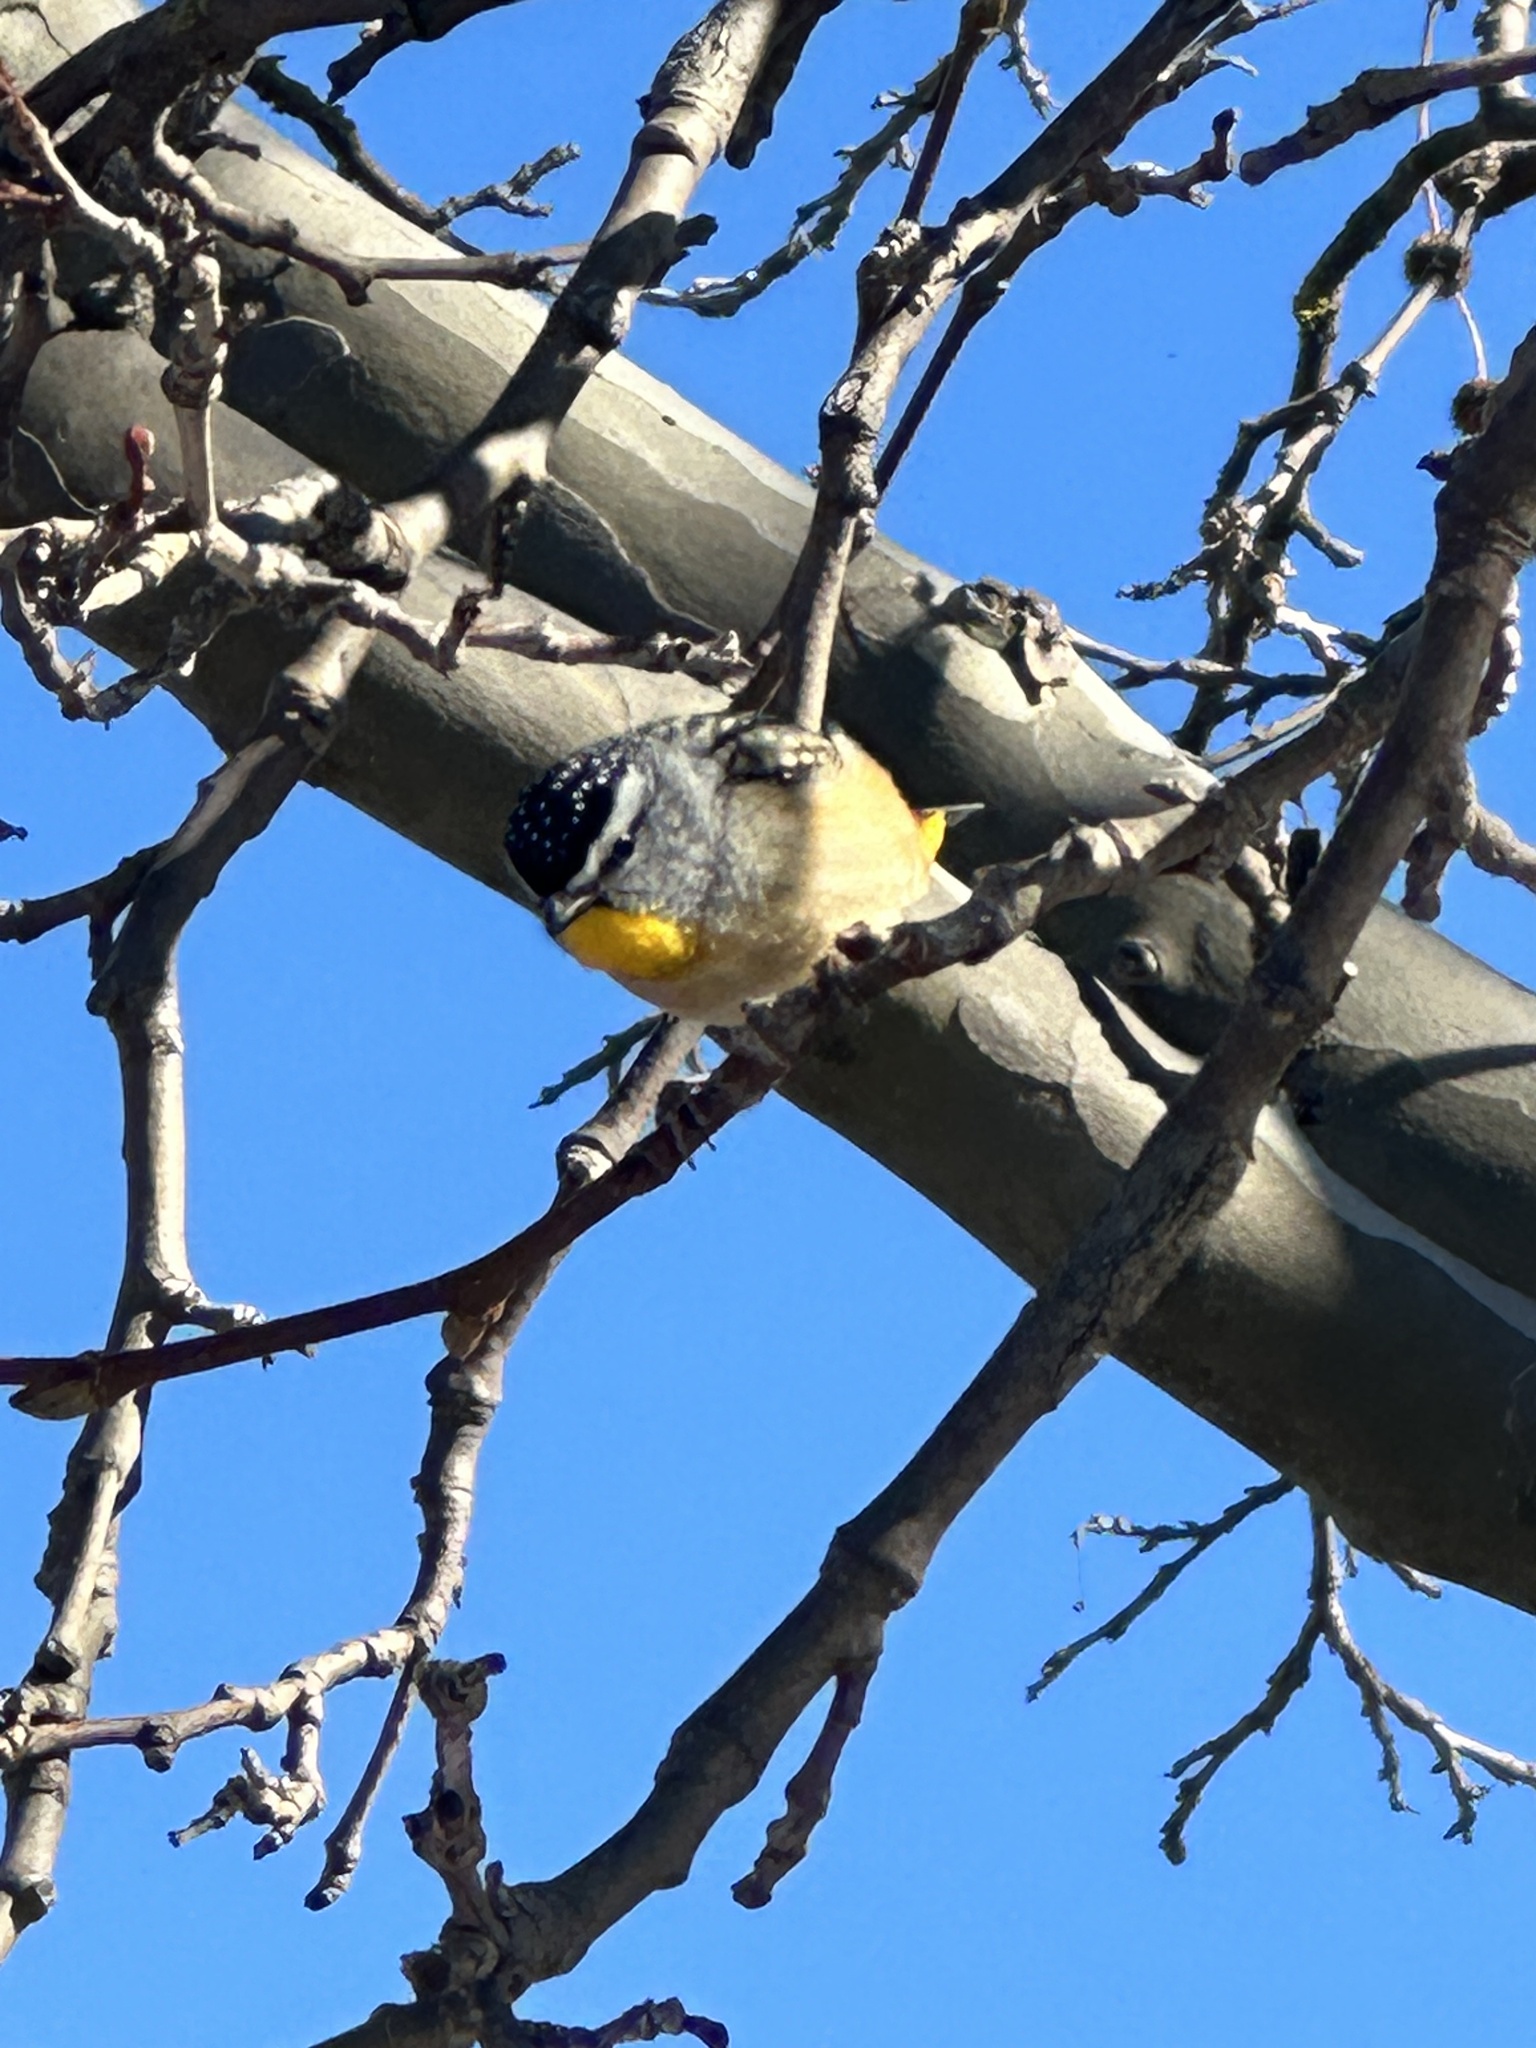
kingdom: Animalia
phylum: Chordata
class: Aves
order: Passeriformes
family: Pardalotidae
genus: Pardalotus
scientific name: Pardalotus punctatus
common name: Spotted pardalote
